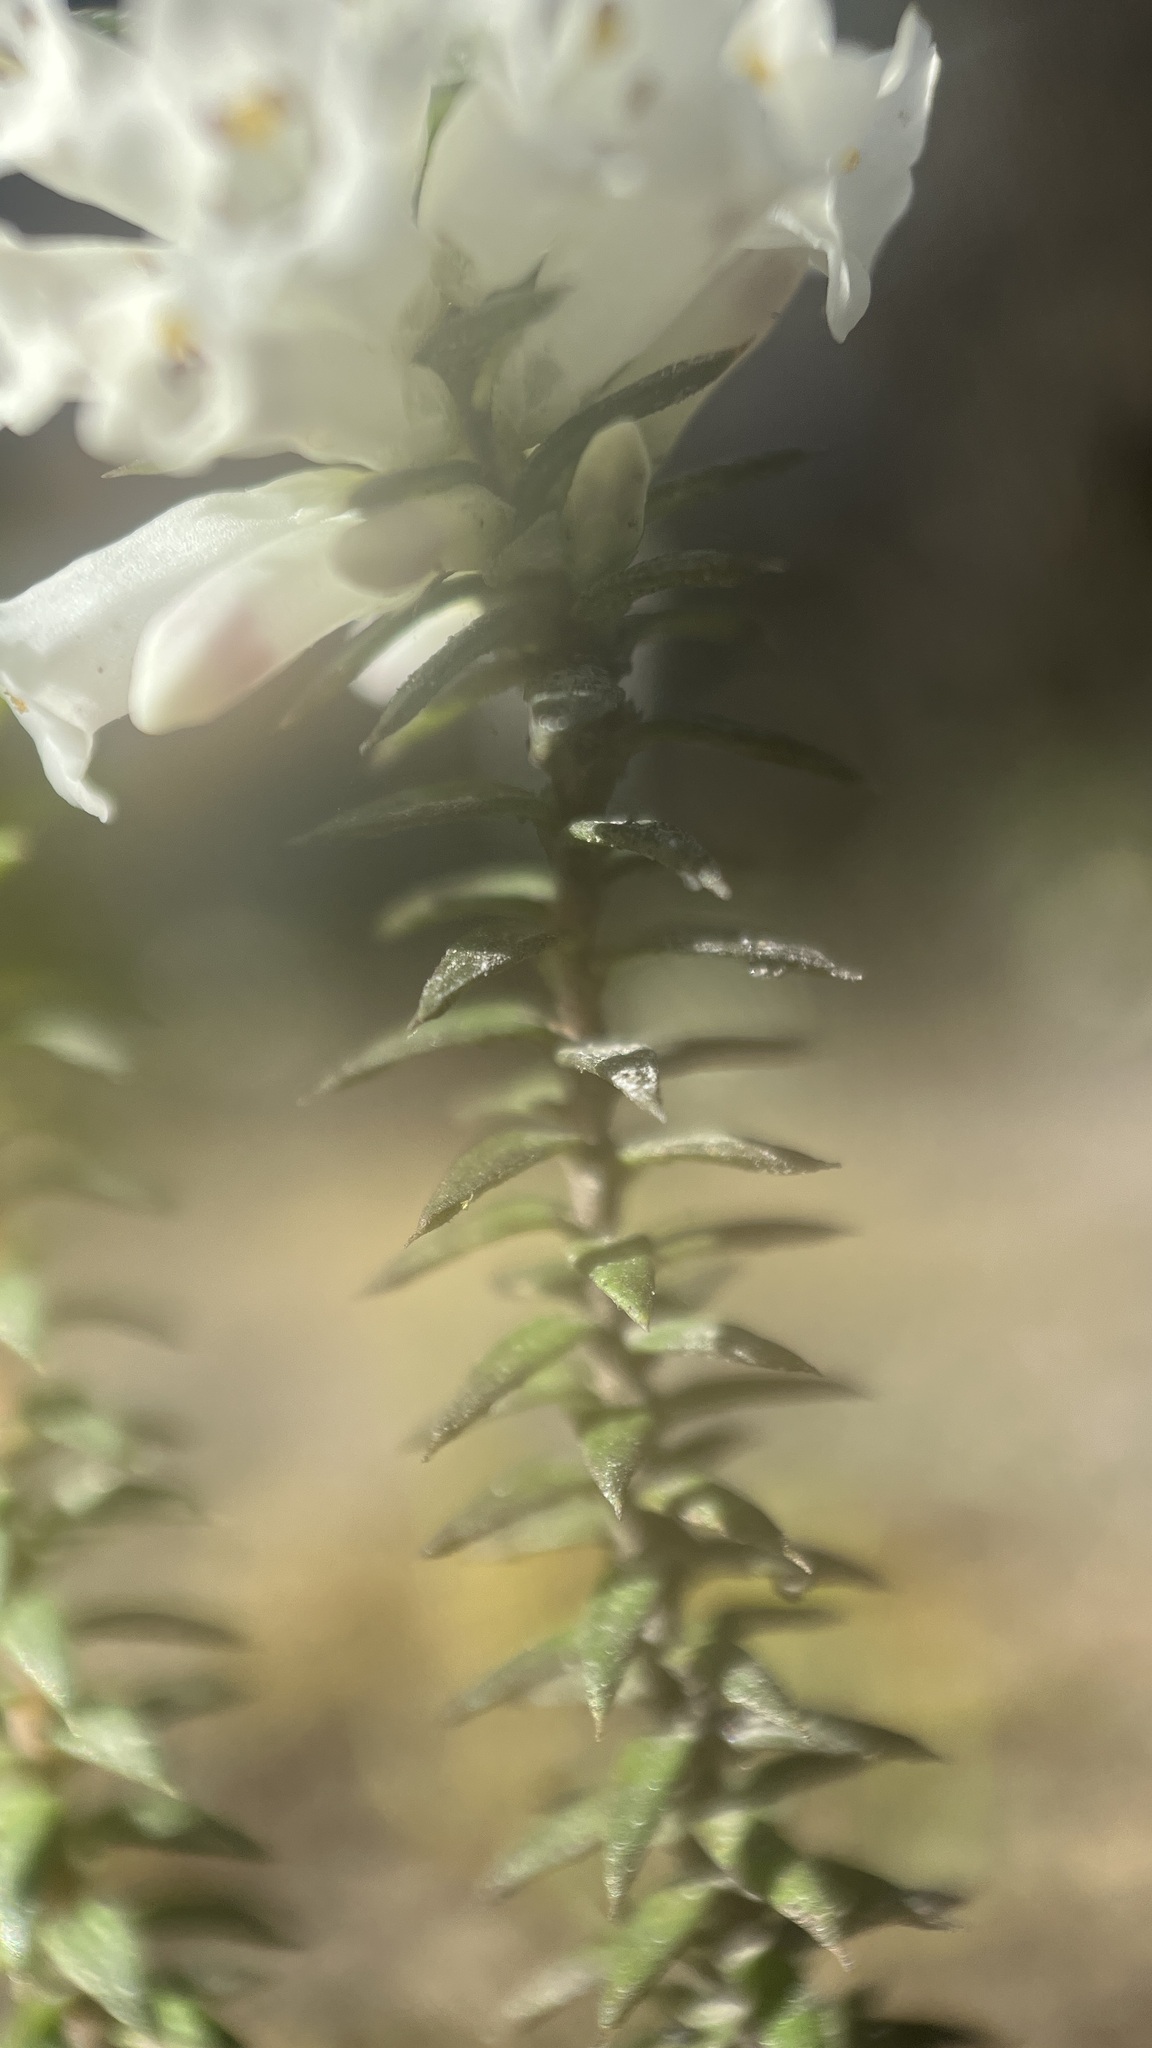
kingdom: Plantae
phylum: Tracheophyta
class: Magnoliopsida
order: Ericales
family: Ericaceae
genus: Epacris
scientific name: Epacris impressa
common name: Common-heath
